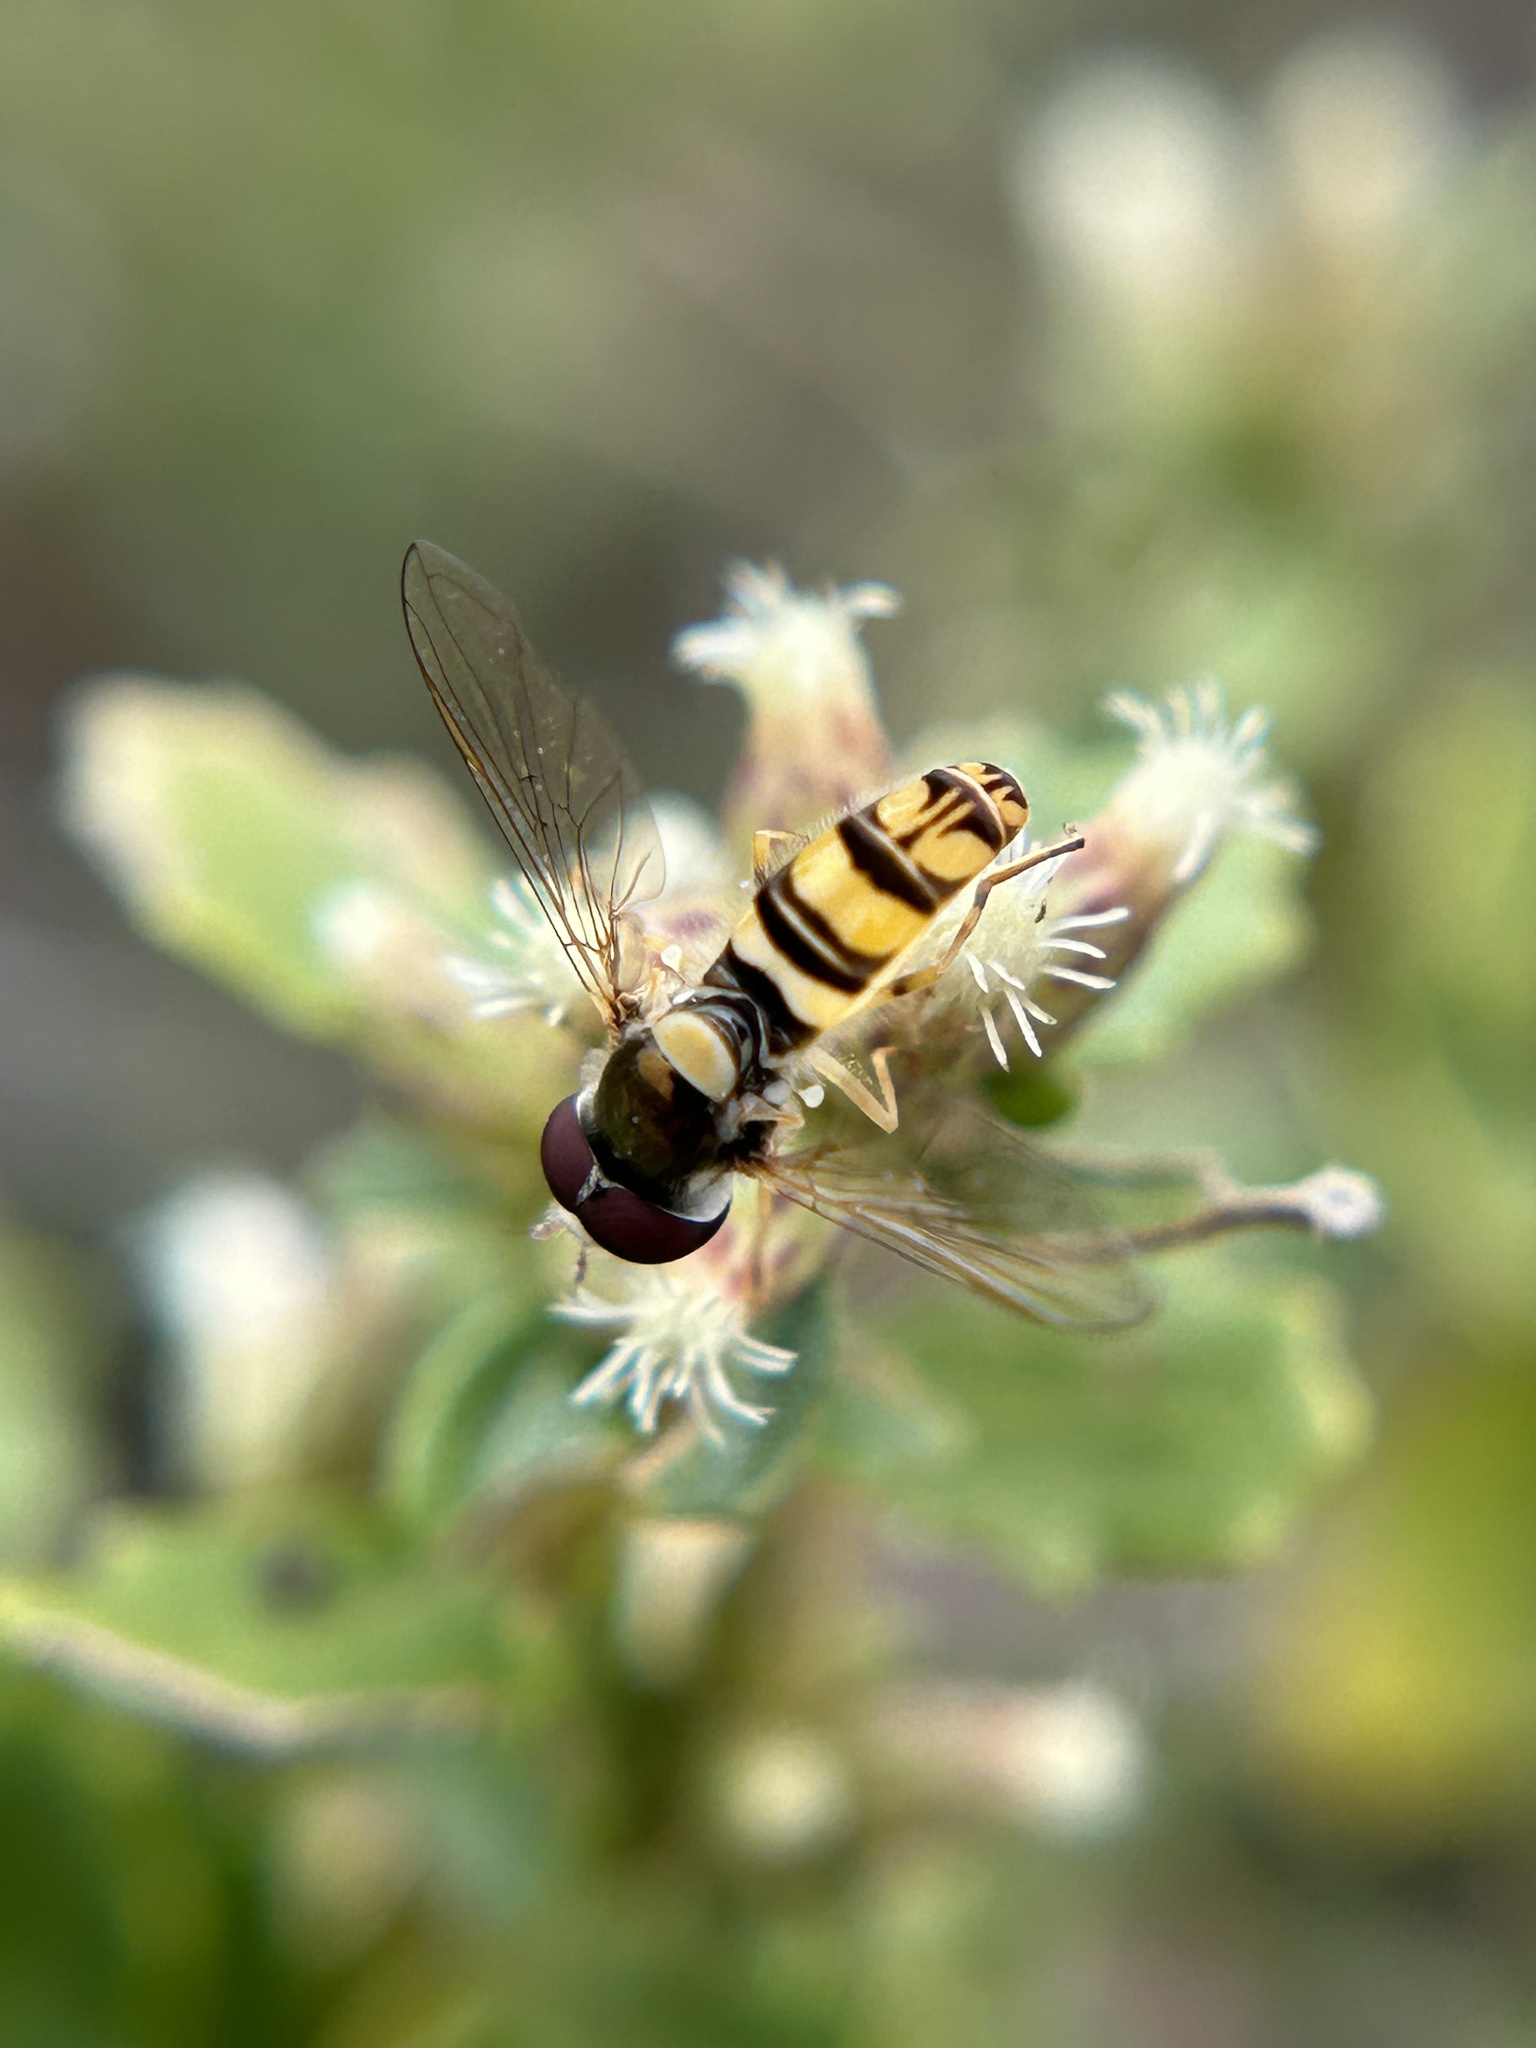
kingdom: Animalia
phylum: Arthropoda
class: Insecta
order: Diptera
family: Syrphidae
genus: Allograpta
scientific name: Allograpta exotica
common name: Syrphid fly
